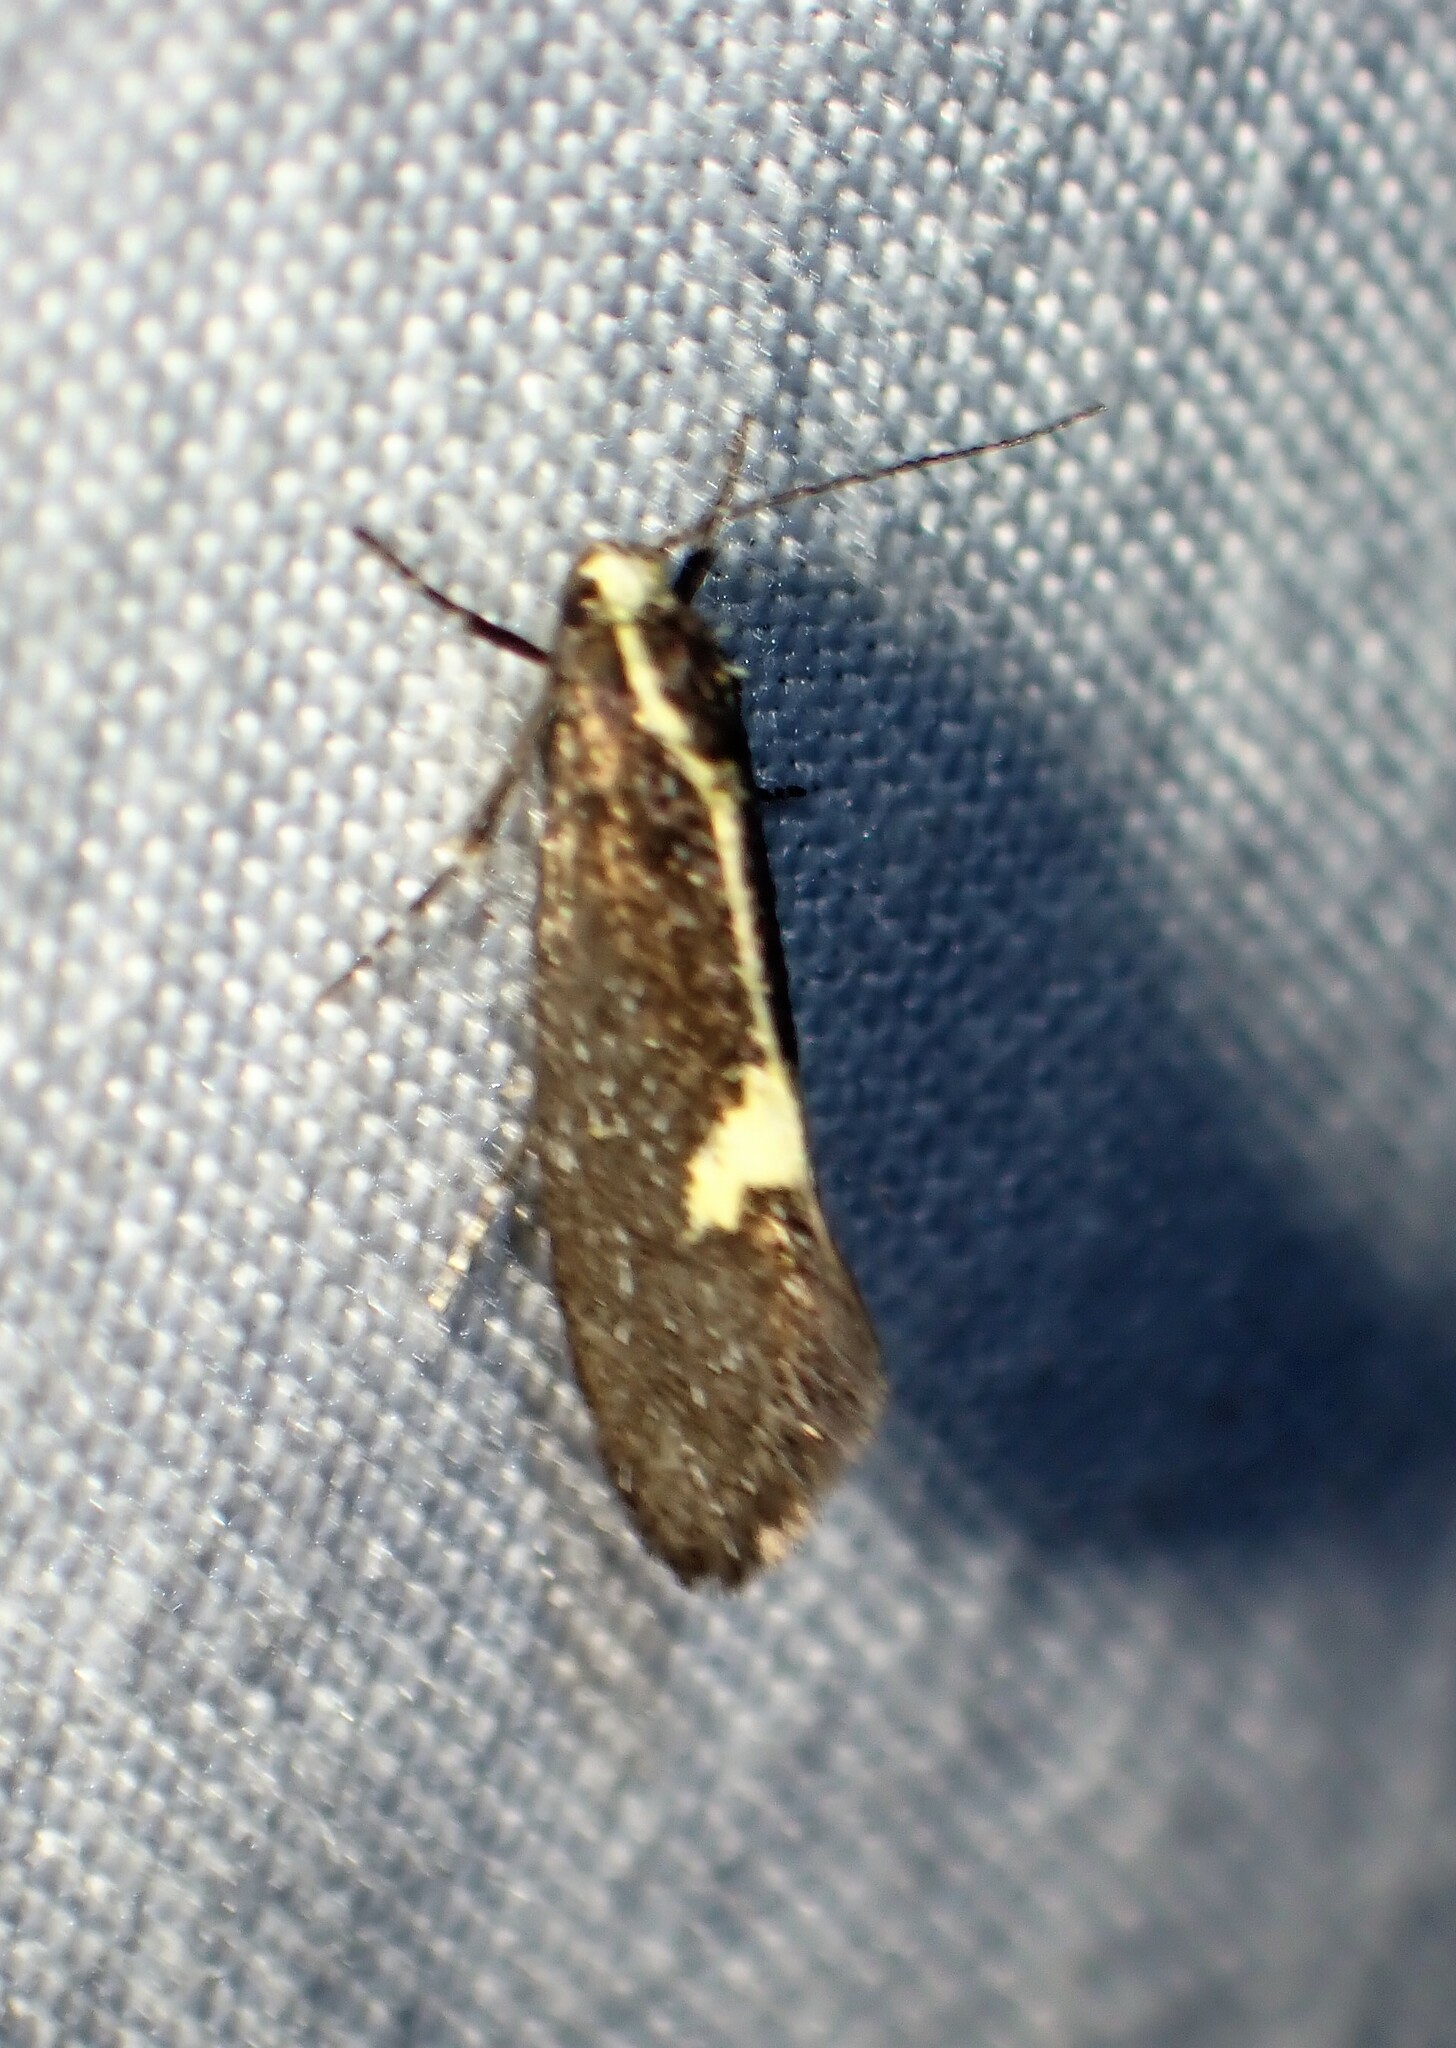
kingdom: Animalia
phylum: Arthropoda
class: Insecta
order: Lepidoptera
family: Oecophoridae
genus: Polix
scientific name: Polix coloradella
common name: Skunk moth
